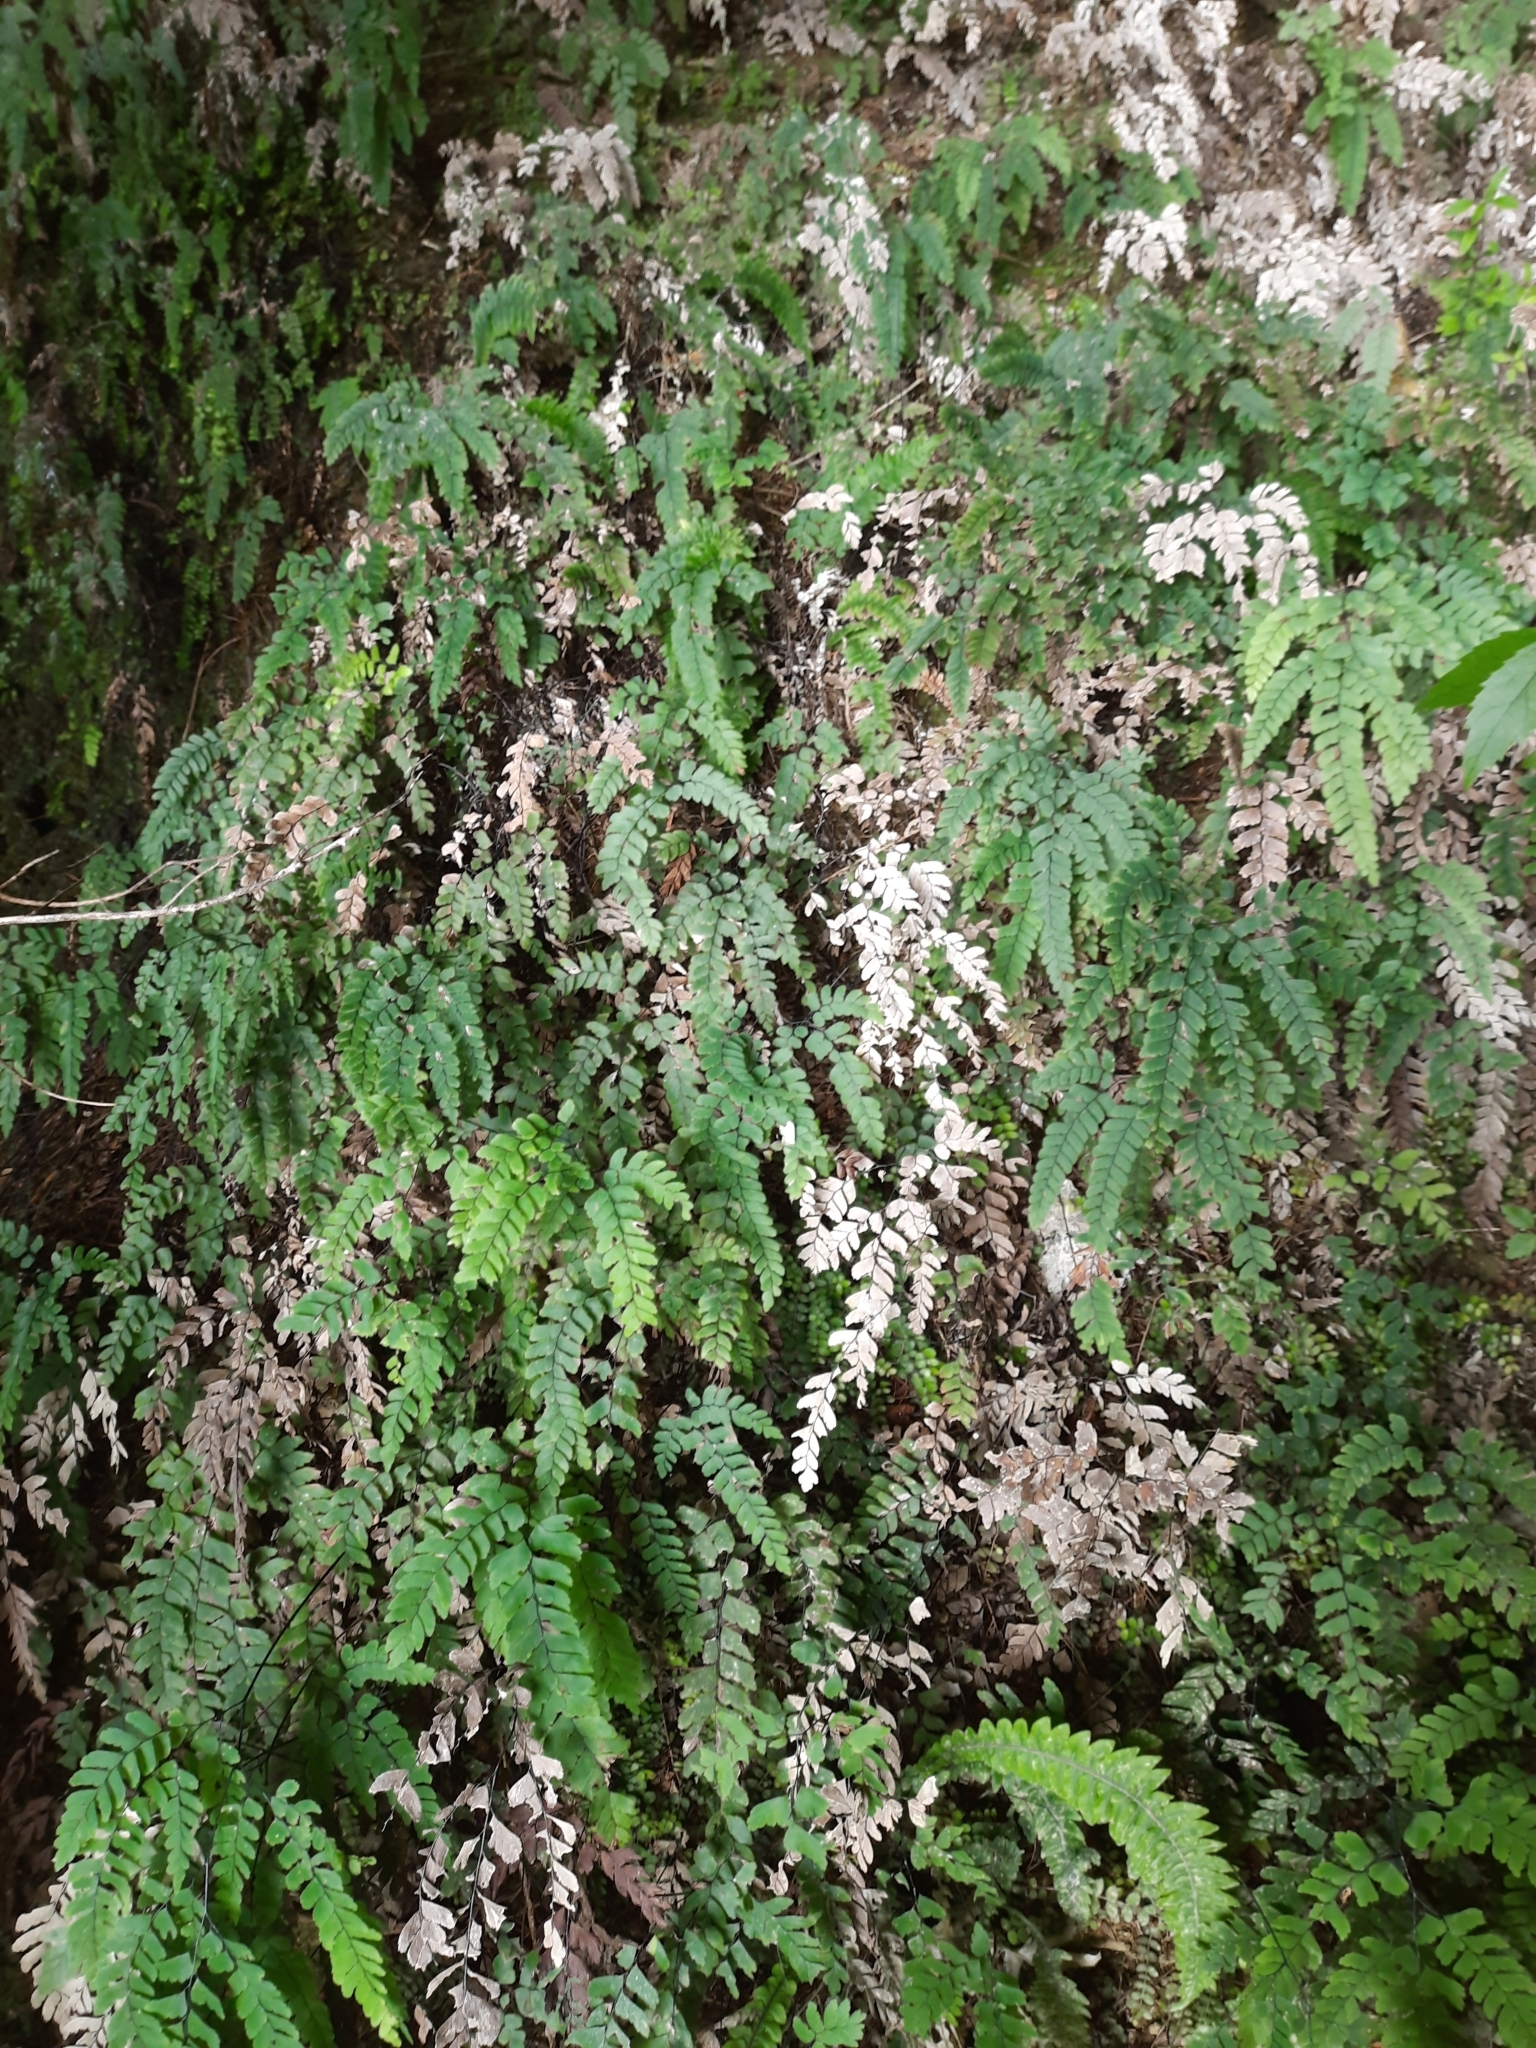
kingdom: Plantae
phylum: Tracheophyta
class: Polypodiopsida
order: Polypodiales
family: Pteridaceae
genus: Adiantum
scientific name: Adiantum cunninghamii
